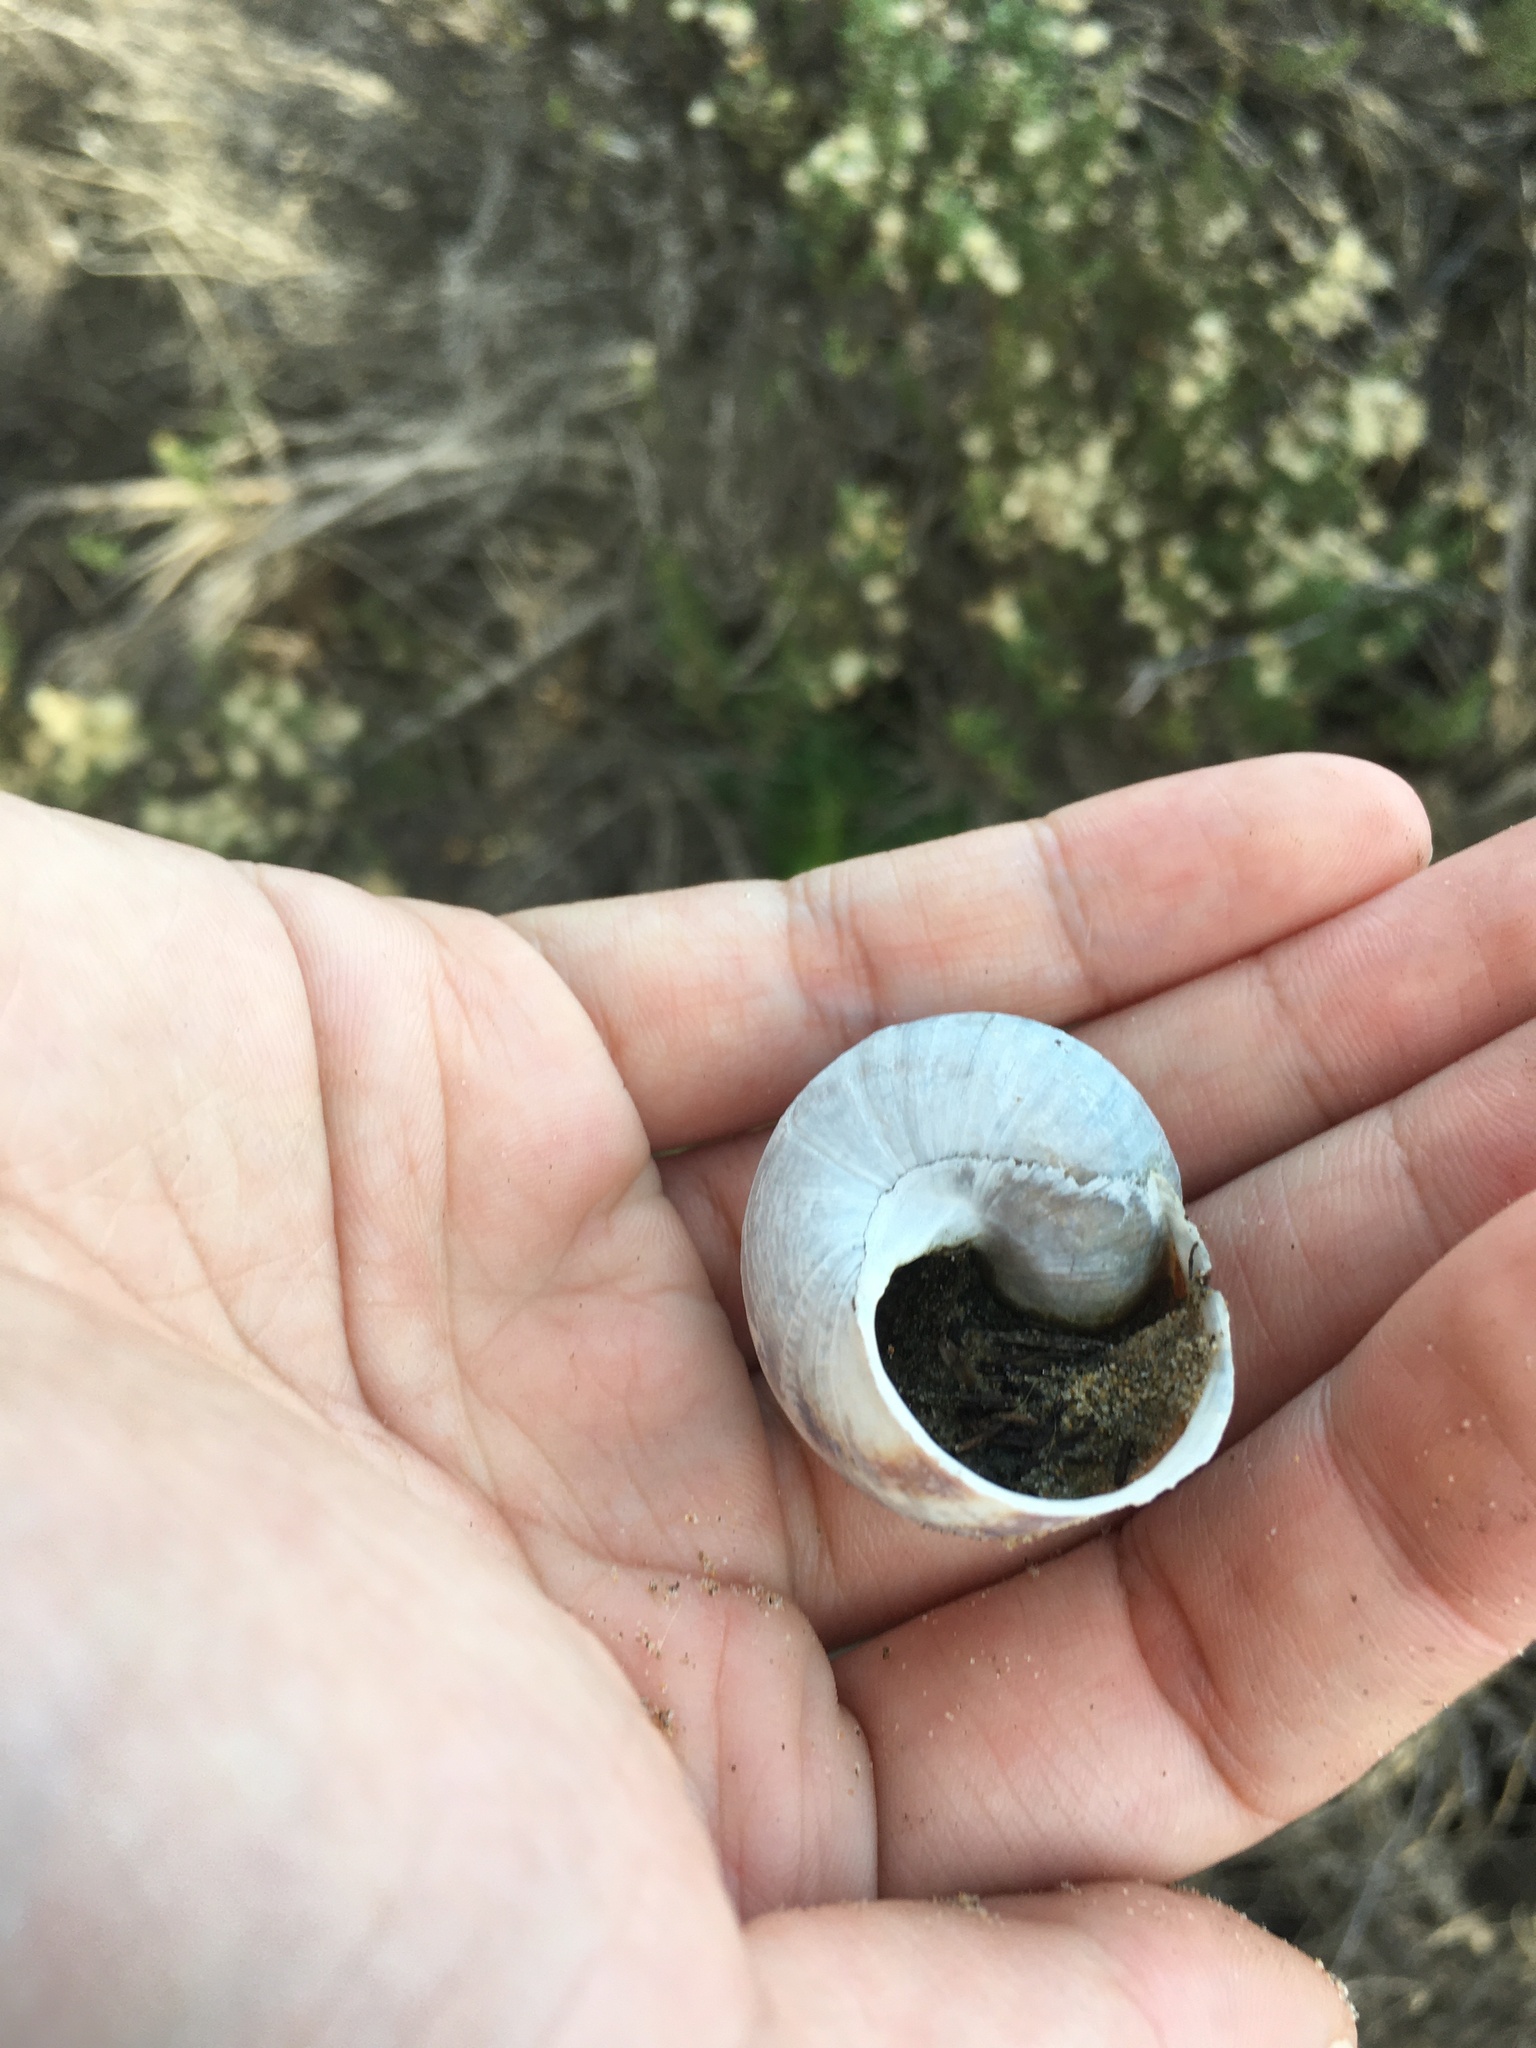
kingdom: Animalia
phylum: Mollusca
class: Gastropoda
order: Stylommatophora
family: Helicidae
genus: Cornu
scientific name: Cornu aspersum
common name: Brown garden snail
